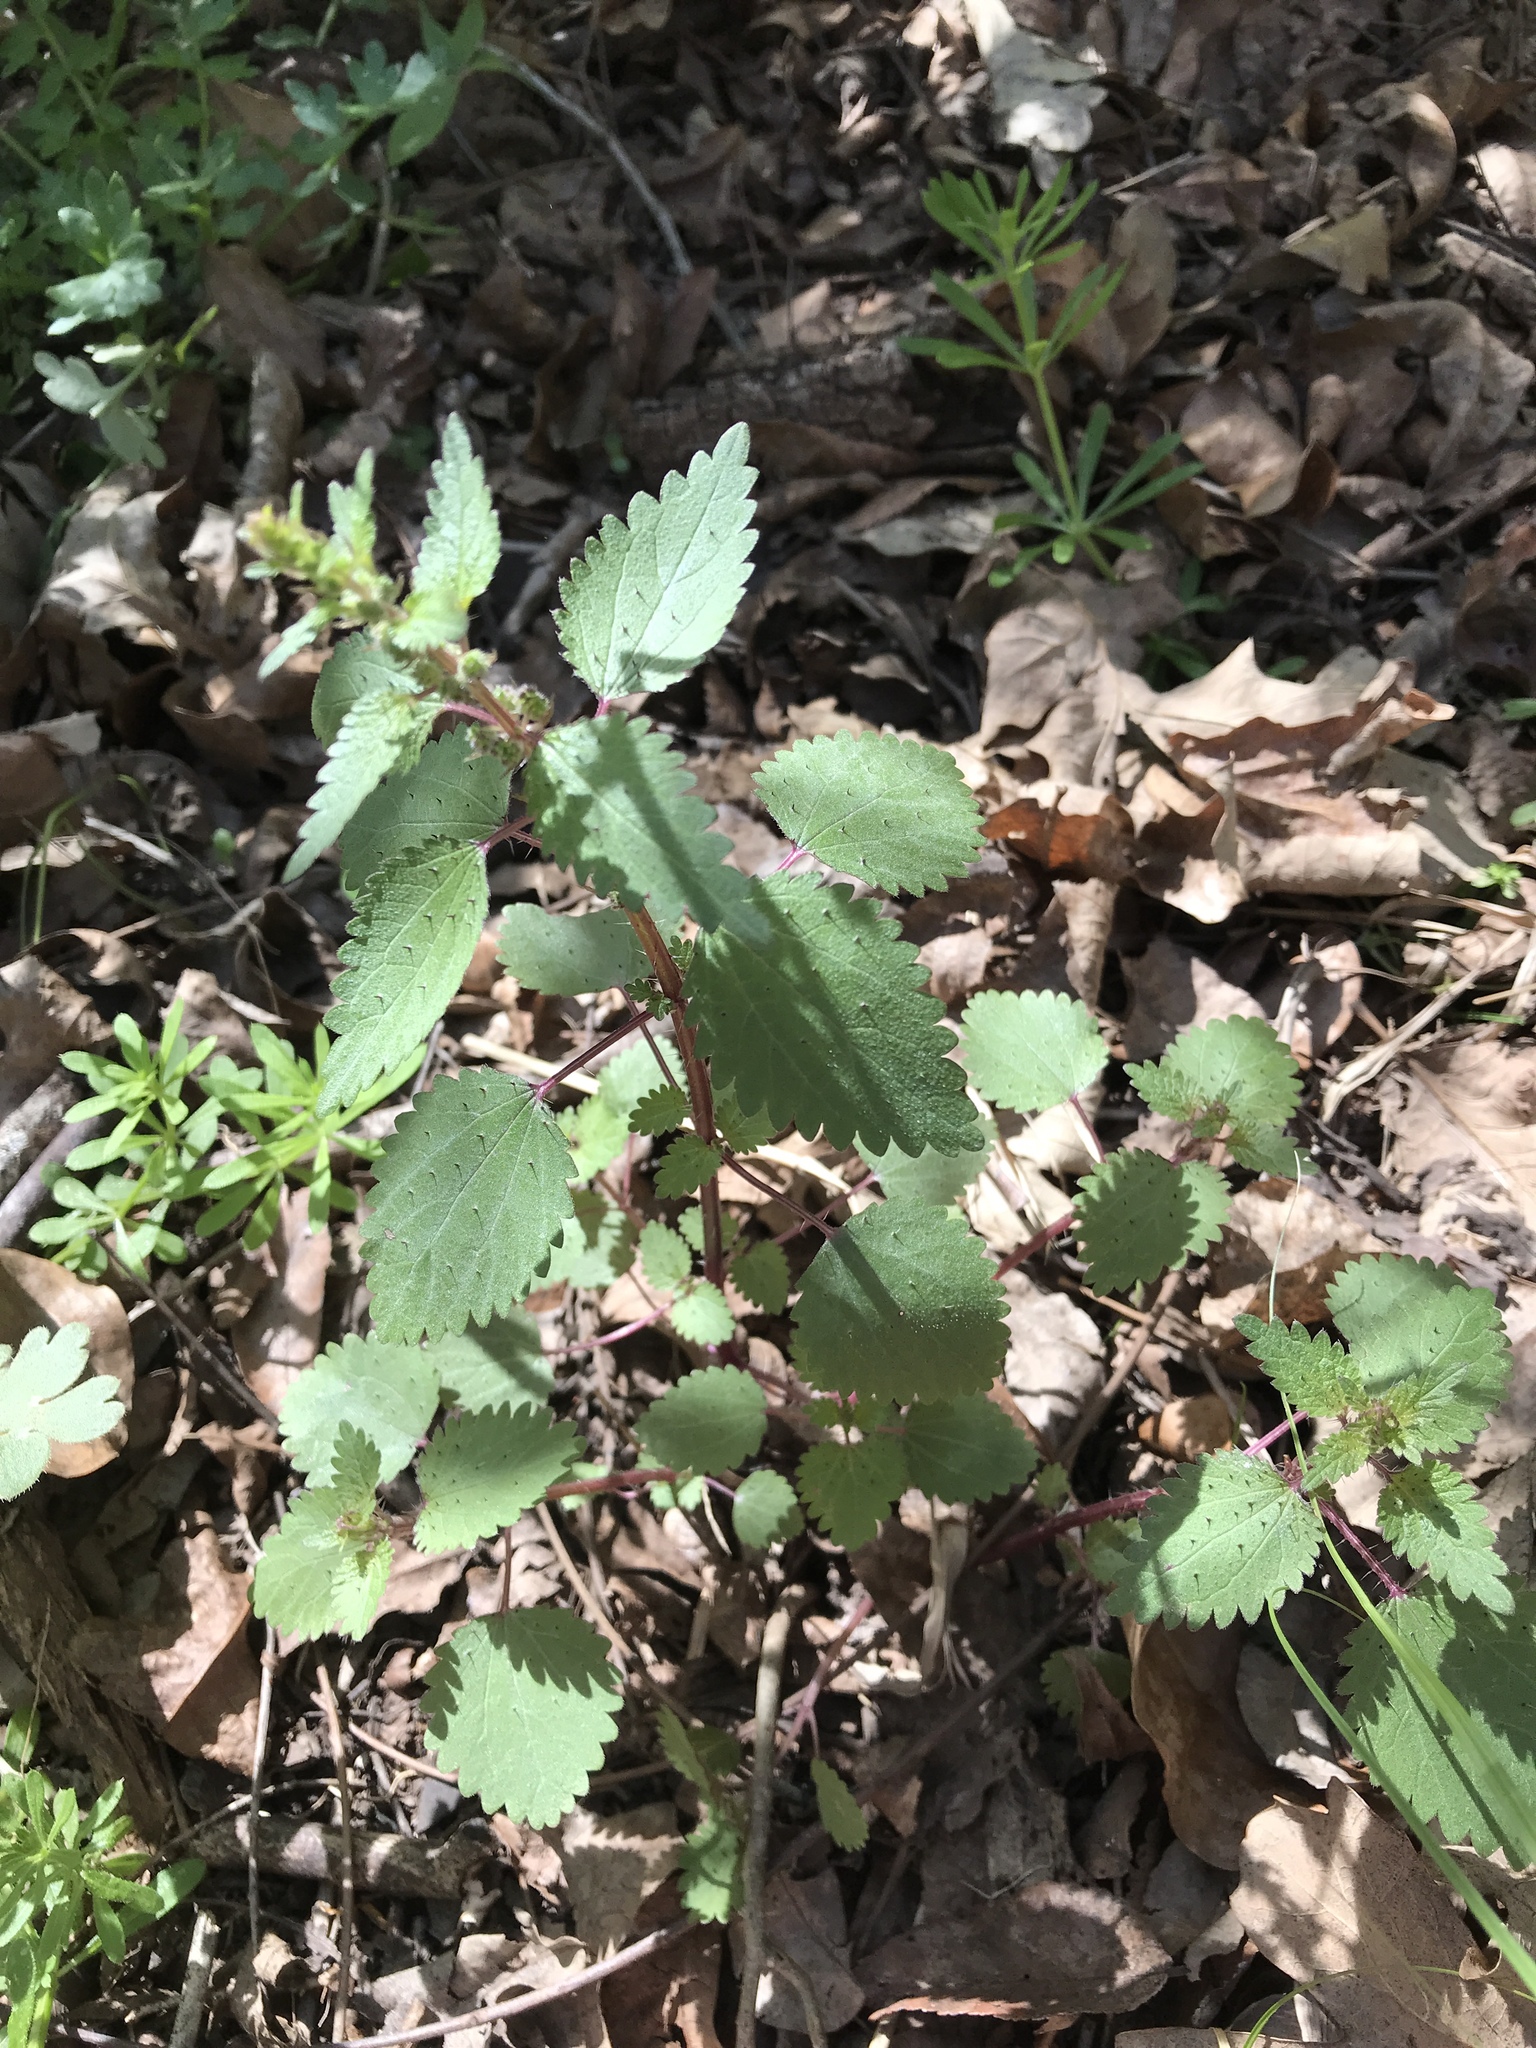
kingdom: Plantae
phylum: Tracheophyta
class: Magnoliopsida
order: Rosales
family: Urticaceae
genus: Urtica
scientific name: Urtica chamaedryoides
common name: Heart-leaf nettle
